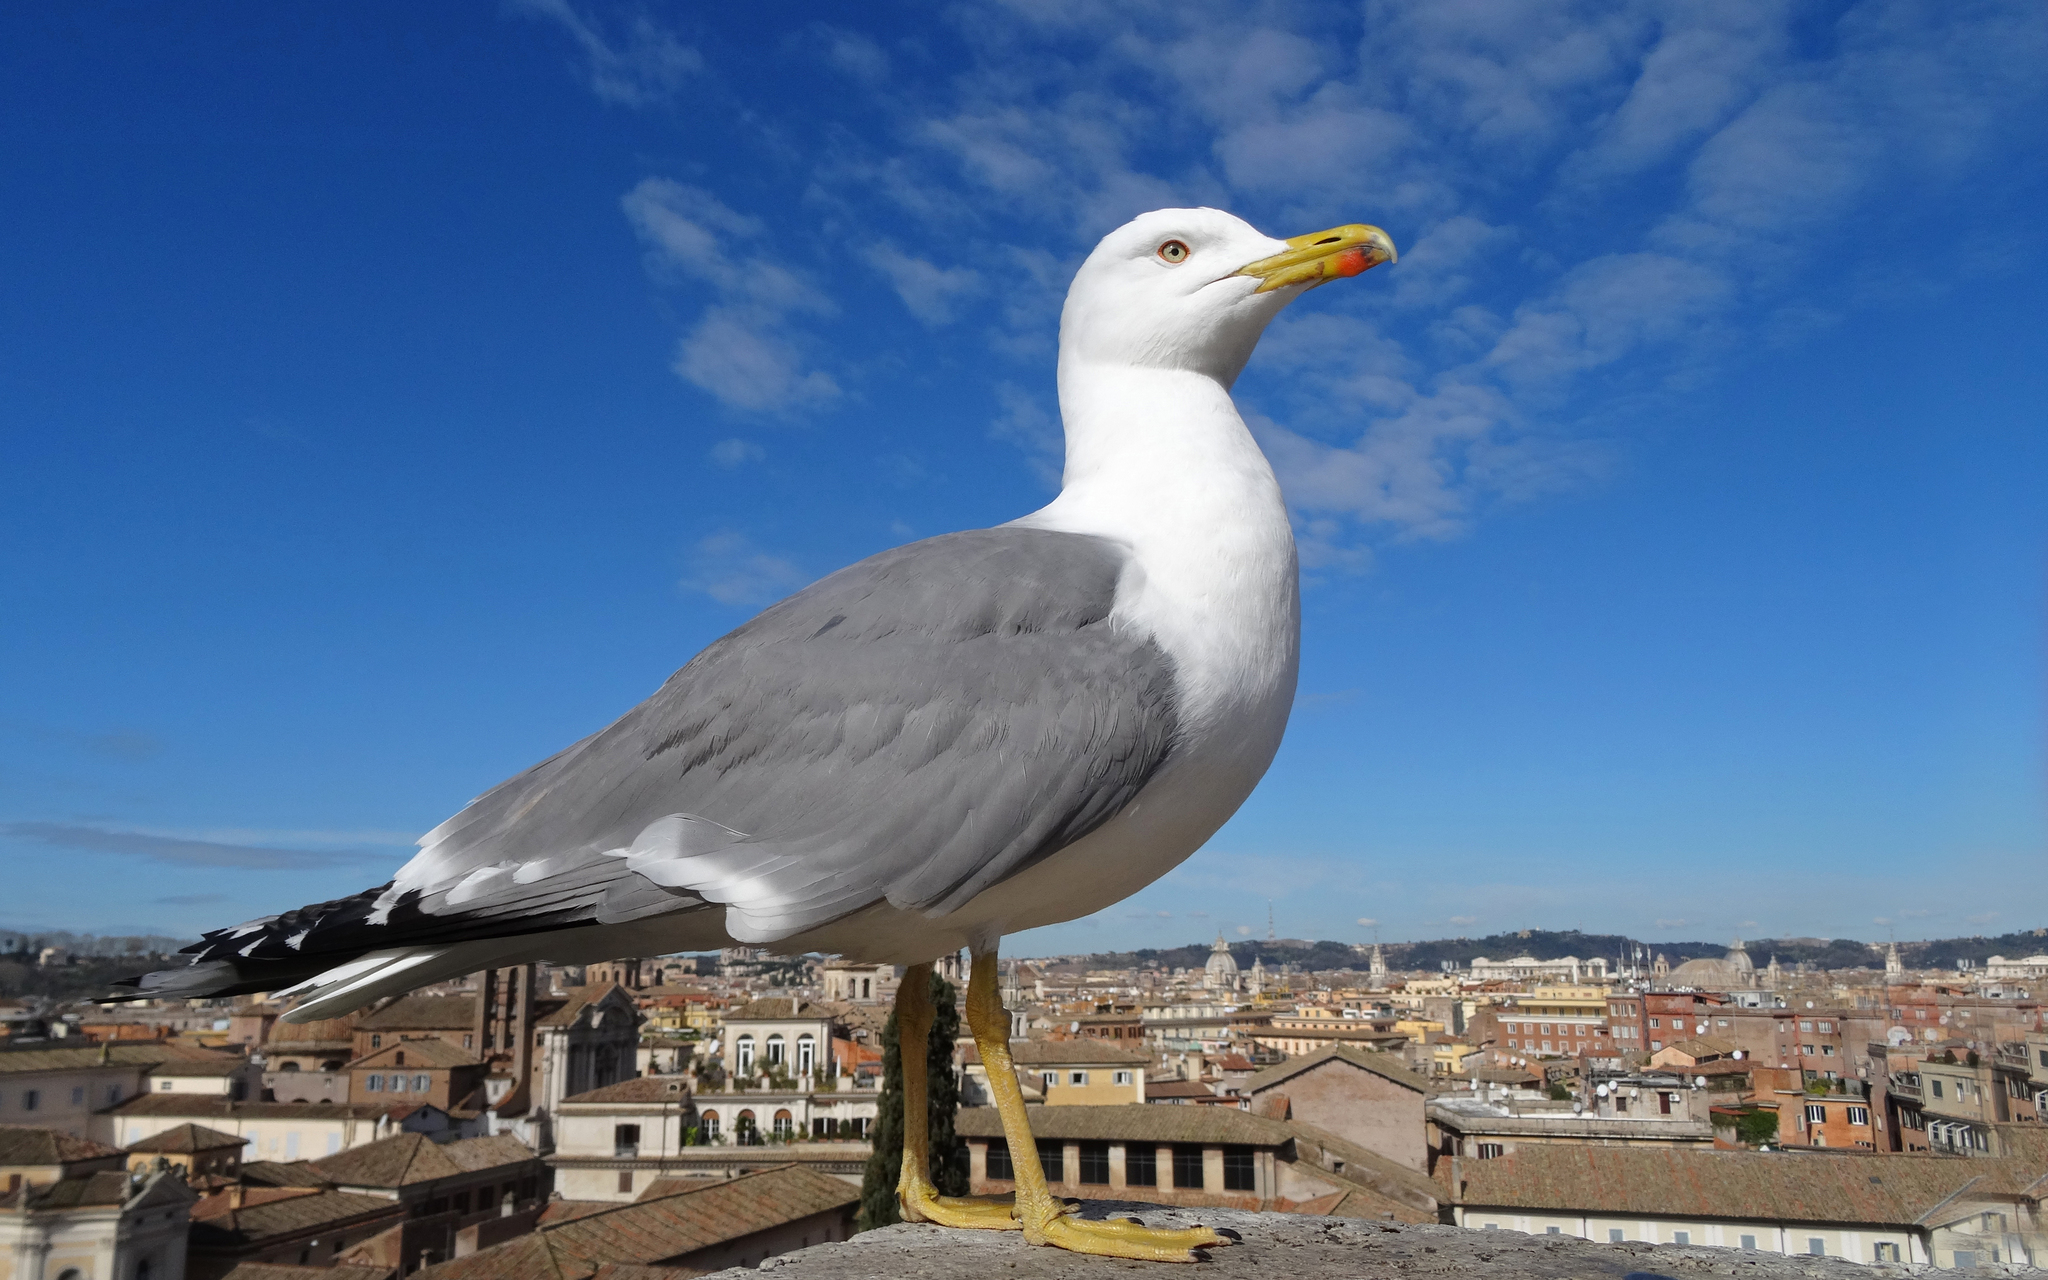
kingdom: Animalia
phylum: Chordata
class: Aves
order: Charadriiformes
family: Laridae
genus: Larus
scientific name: Larus michahellis
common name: Yellow-legged gull
